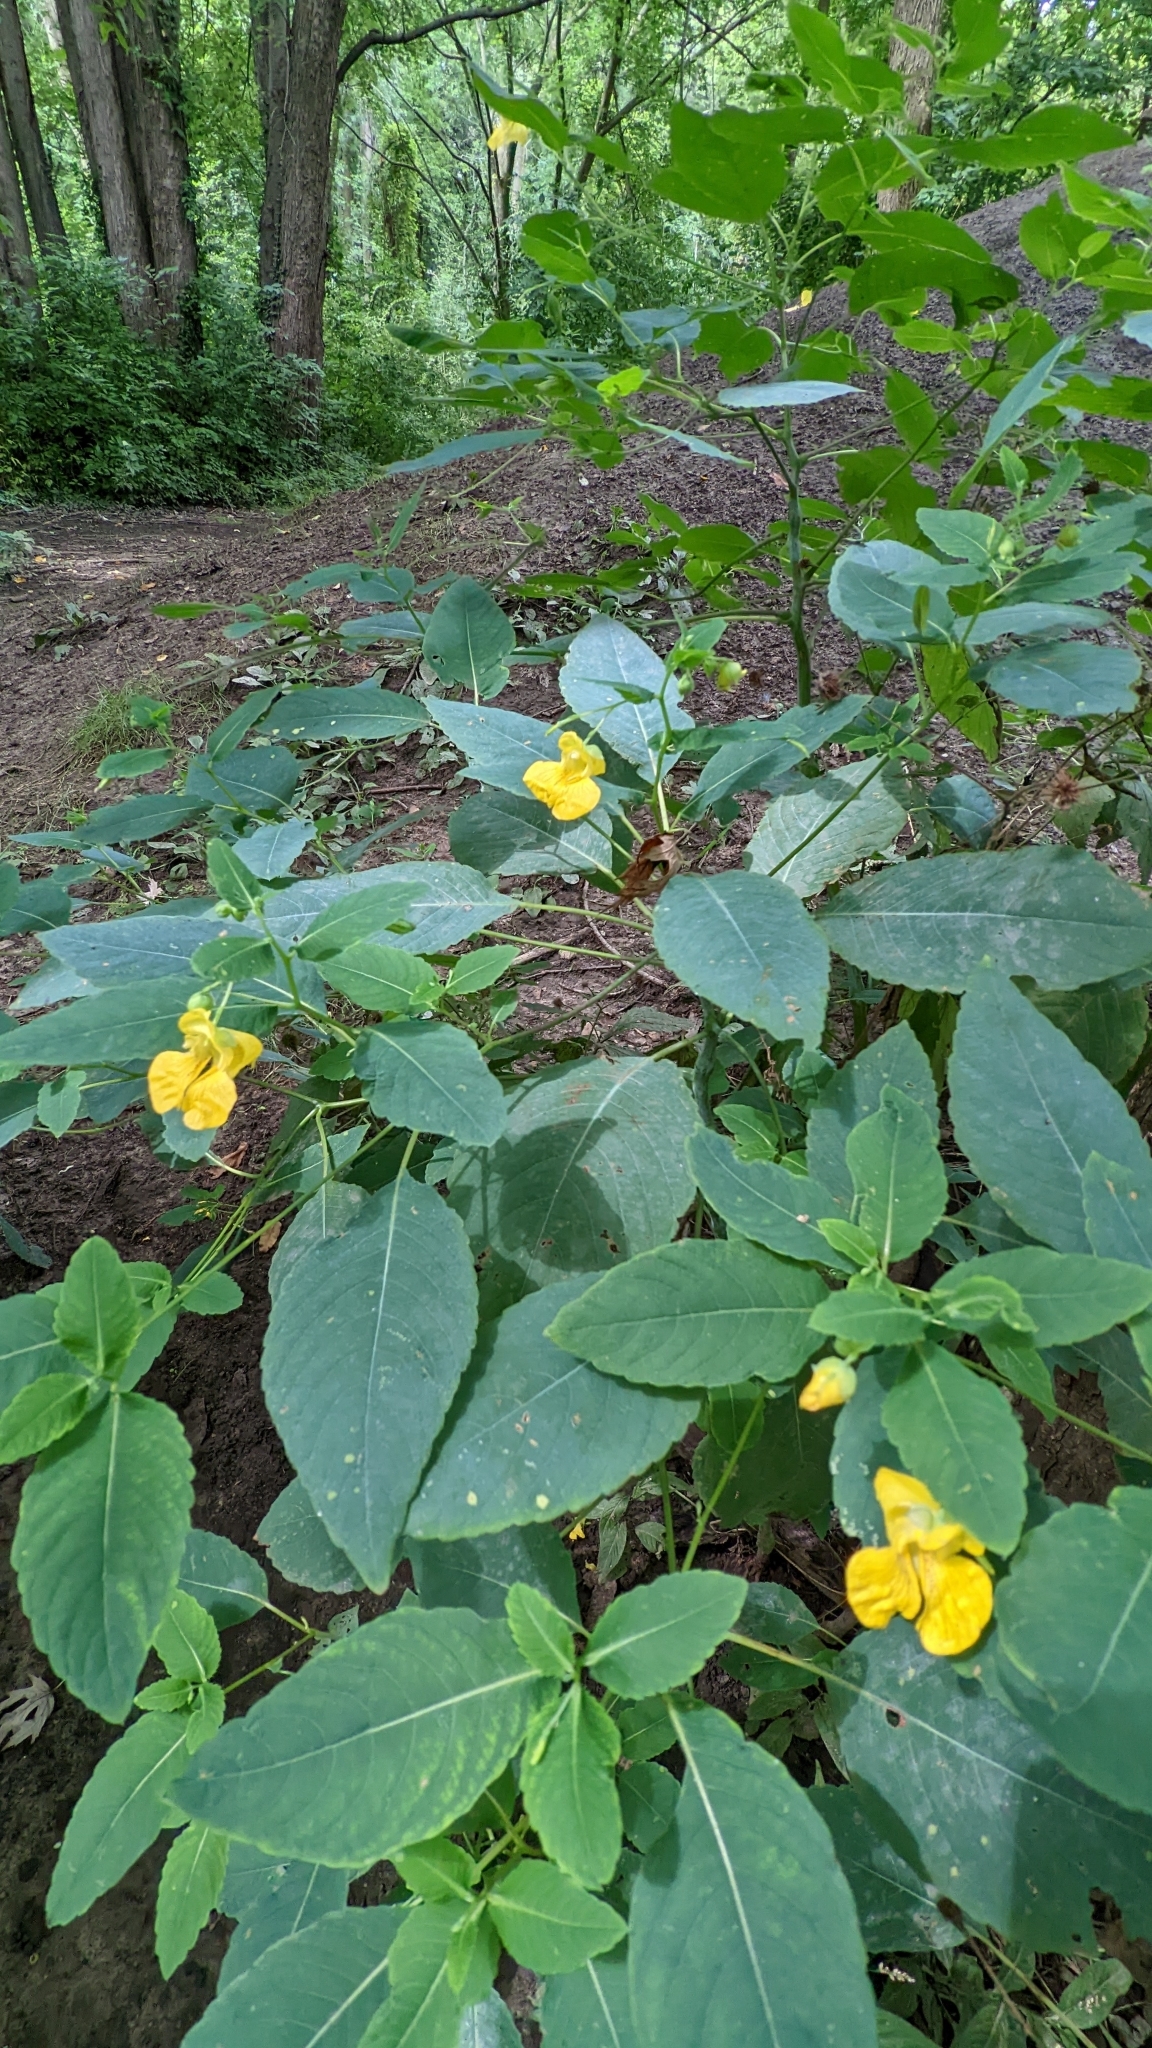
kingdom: Plantae
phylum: Tracheophyta
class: Magnoliopsida
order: Ericales
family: Balsaminaceae
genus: Impatiens
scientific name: Impatiens pallida
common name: Pale snapweed
